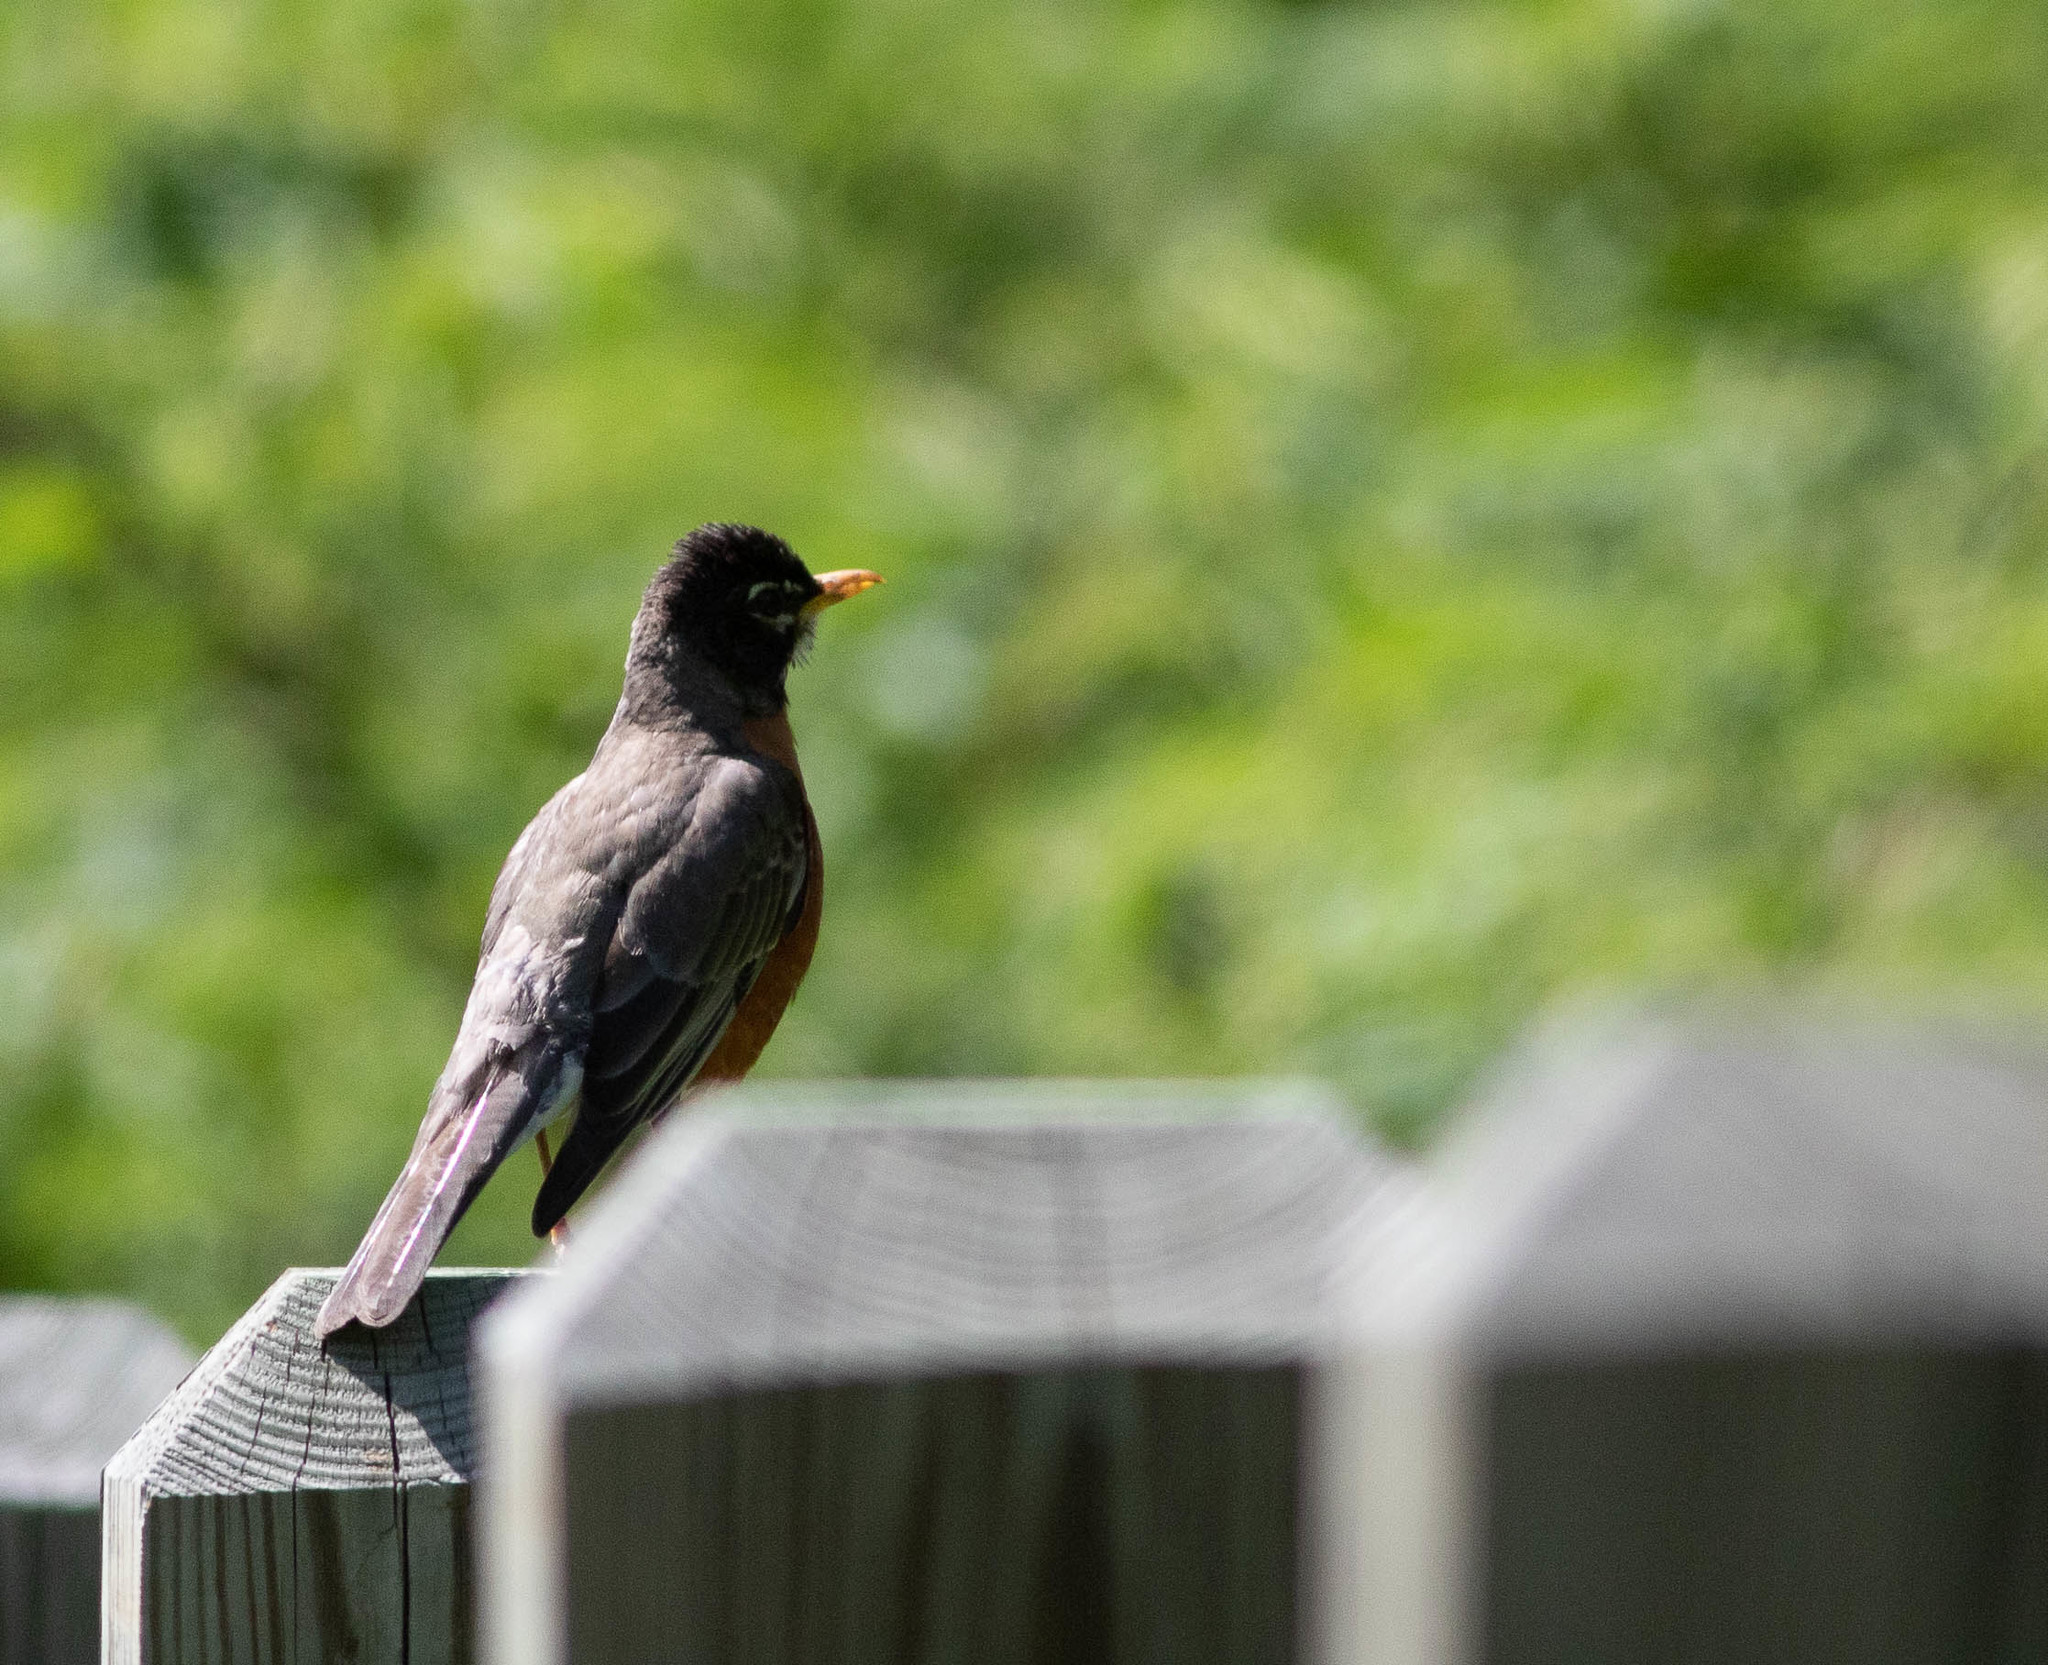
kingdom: Animalia
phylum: Chordata
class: Aves
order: Passeriformes
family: Turdidae
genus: Turdus
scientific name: Turdus migratorius
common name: American robin
